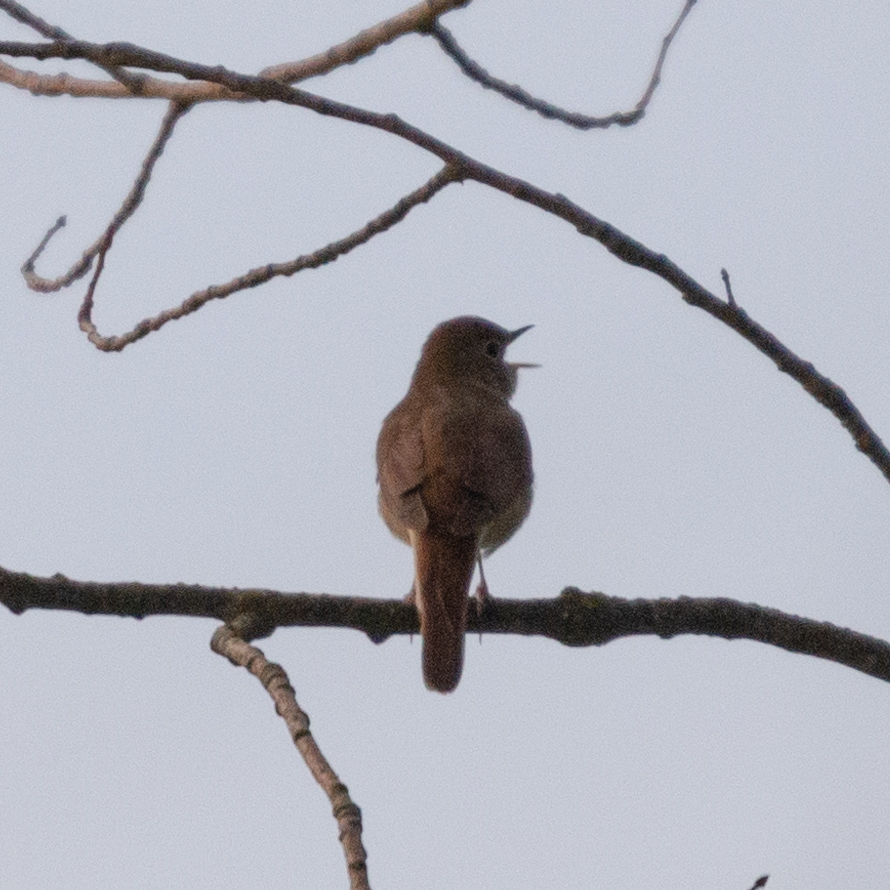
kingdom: Animalia
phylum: Chordata
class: Aves
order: Passeriformes
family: Muscicapidae
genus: Luscinia
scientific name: Luscinia megarhynchos
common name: Common nightingale
